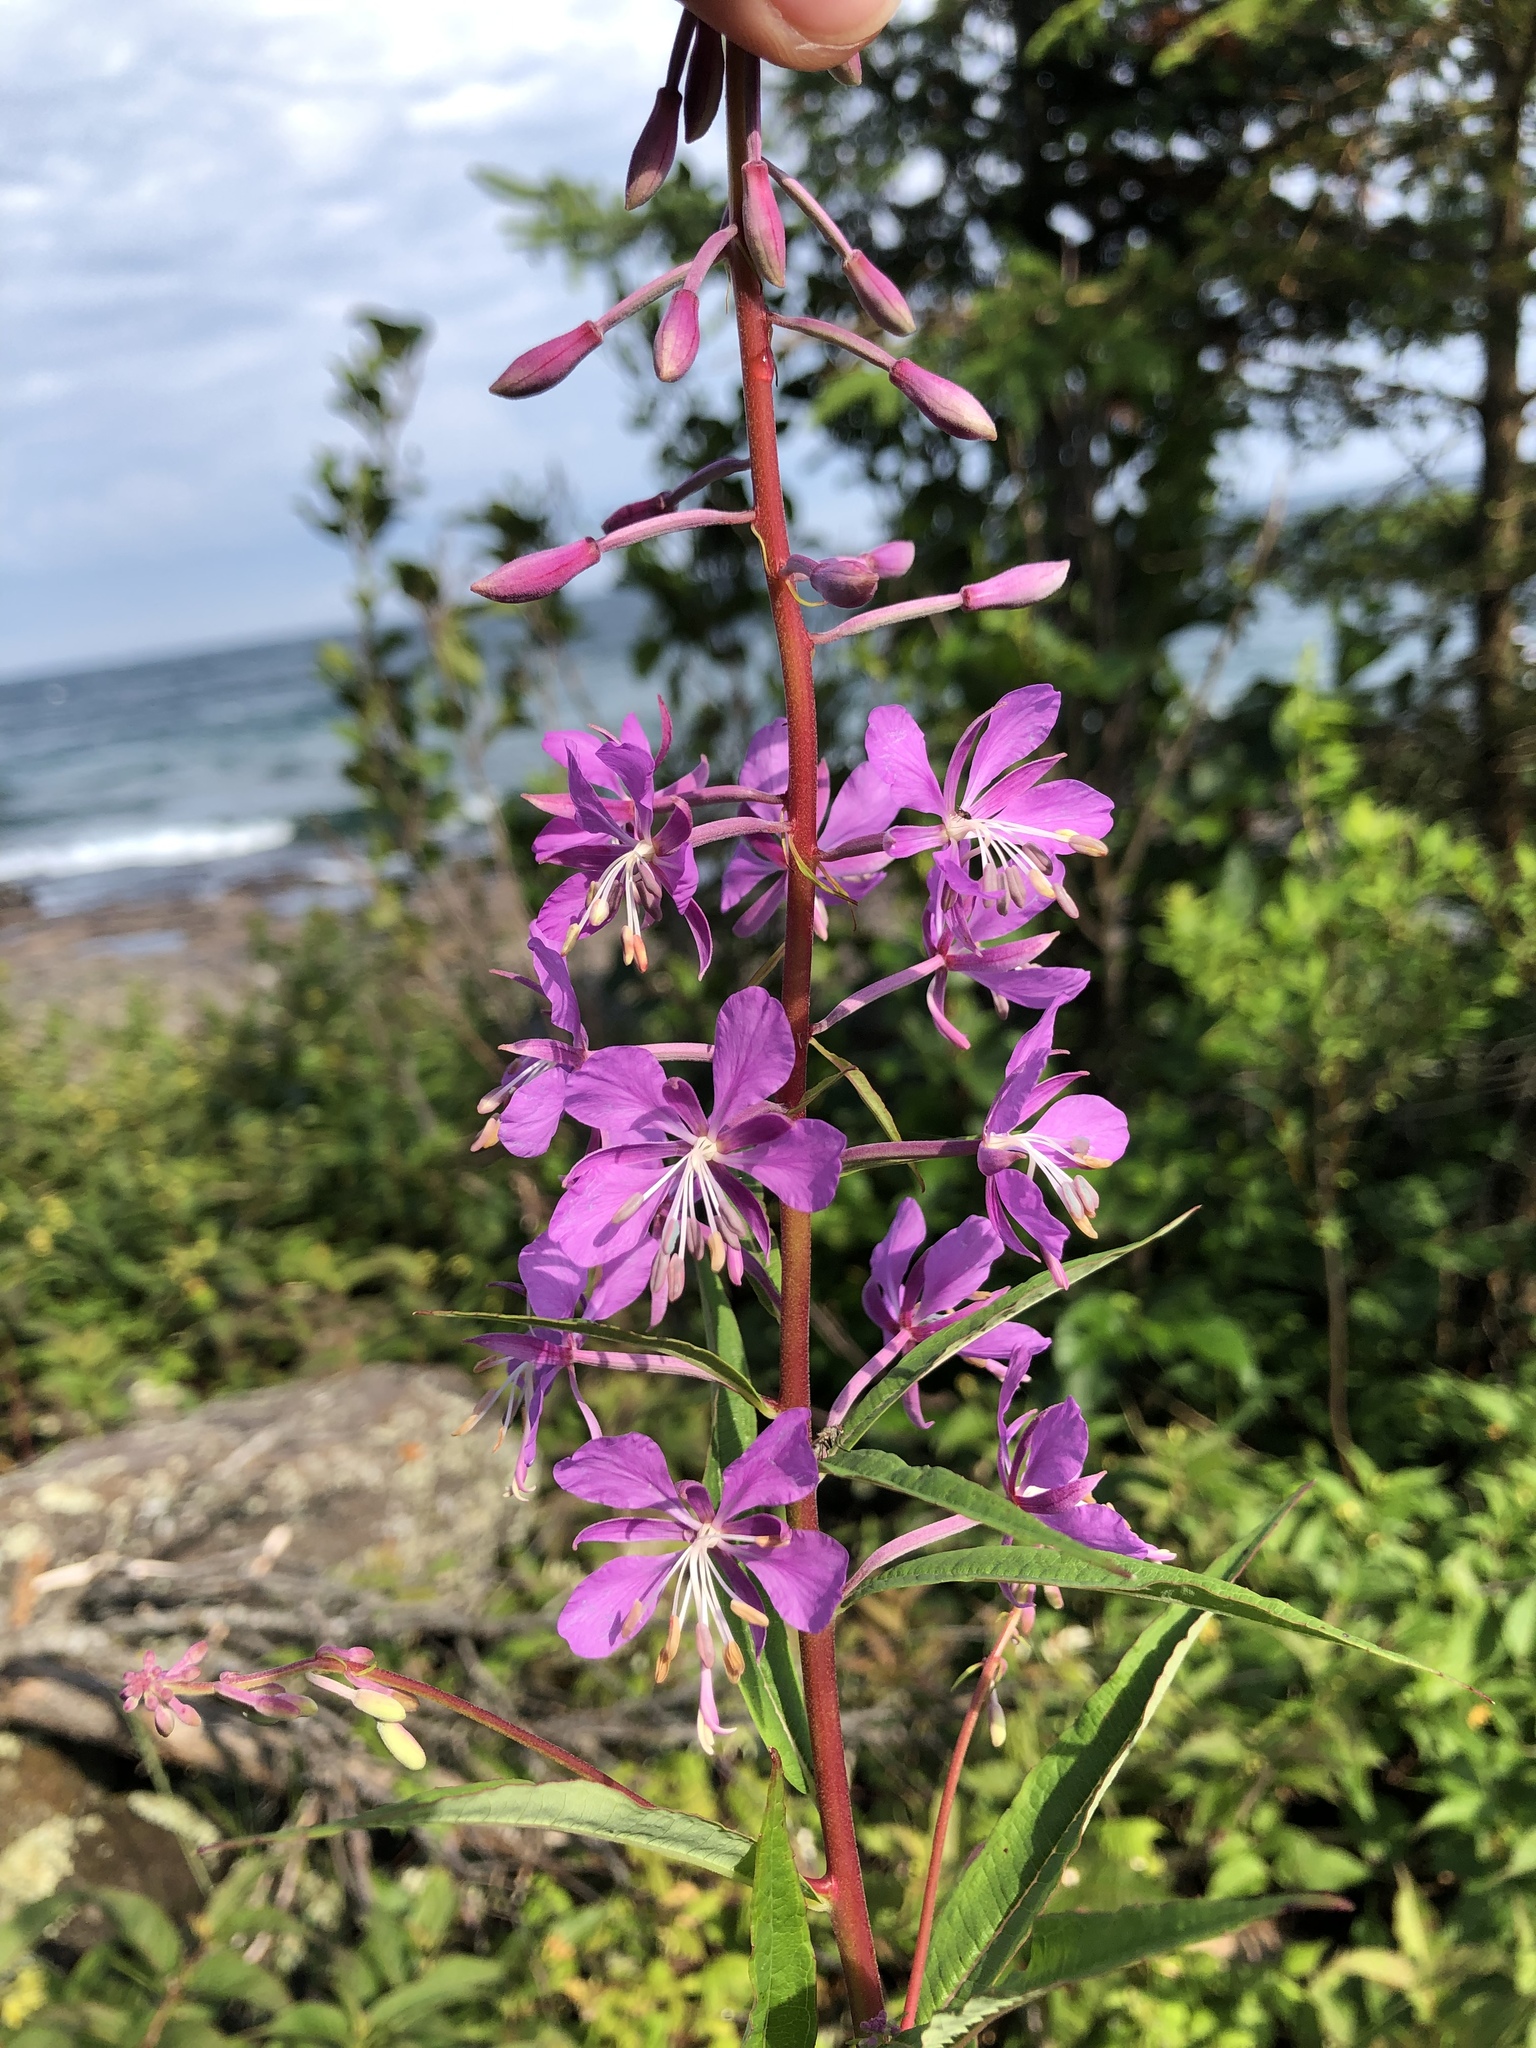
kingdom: Plantae
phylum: Tracheophyta
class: Magnoliopsida
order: Myrtales
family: Onagraceae
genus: Chamaenerion
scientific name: Chamaenerion angustifolium
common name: Fireweed
